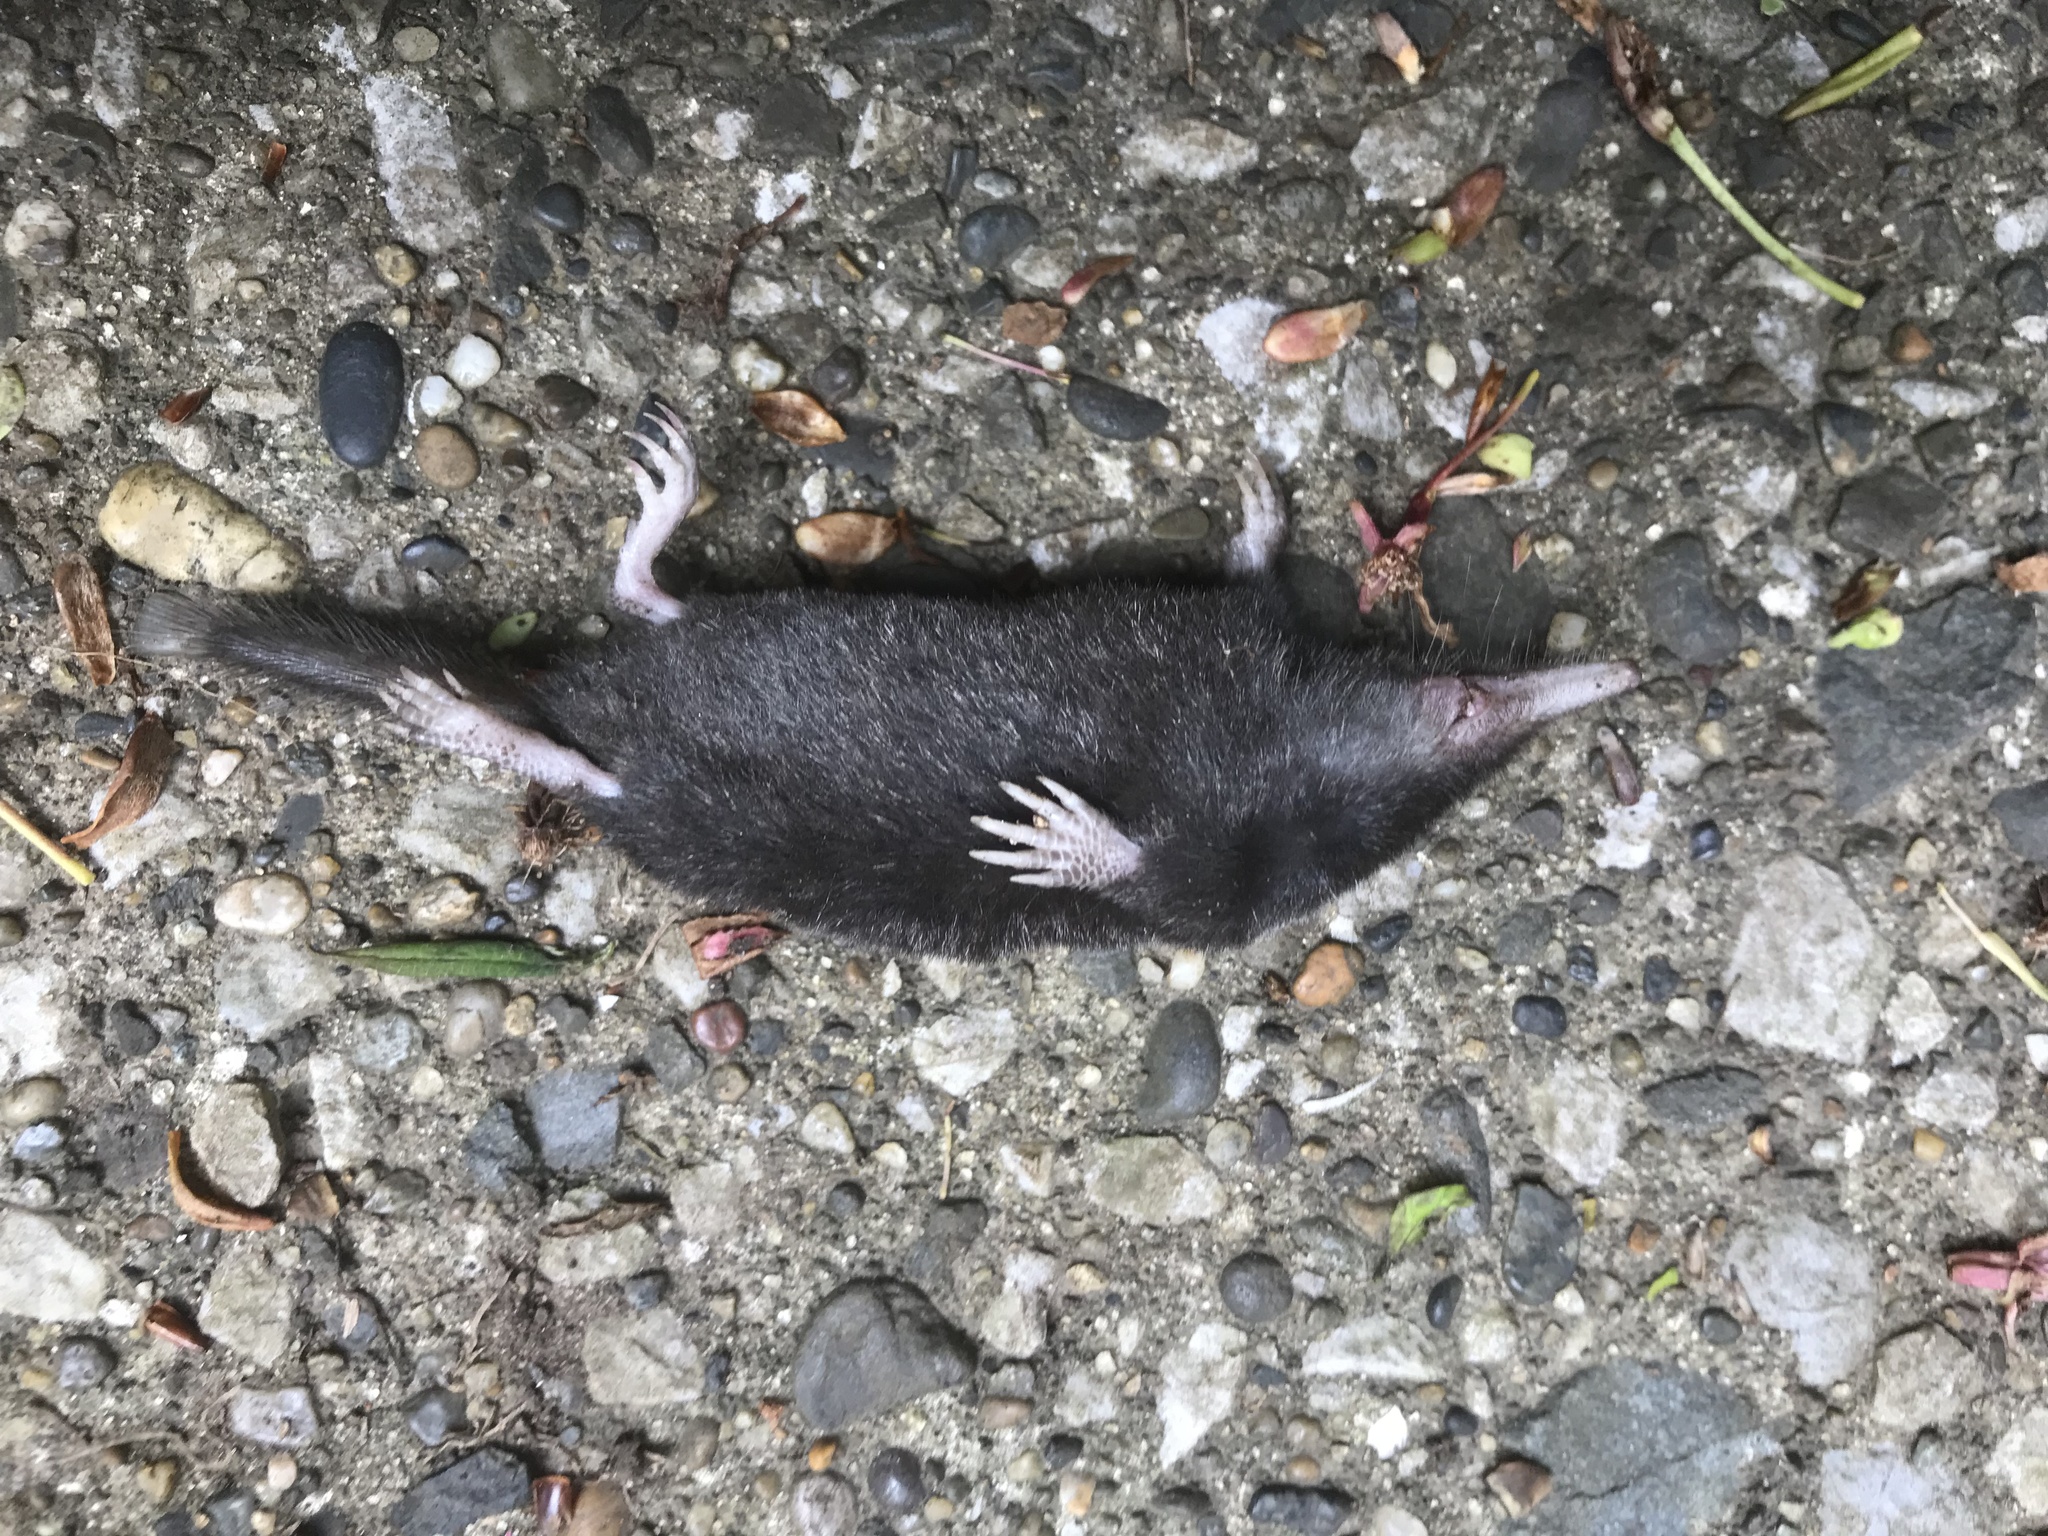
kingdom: Animalia
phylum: Chordata
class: Mammalia
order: Soricomorpha
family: Talpidae
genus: Urotrichus
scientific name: Urotrichus talpoides
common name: Japanese shrew mole
